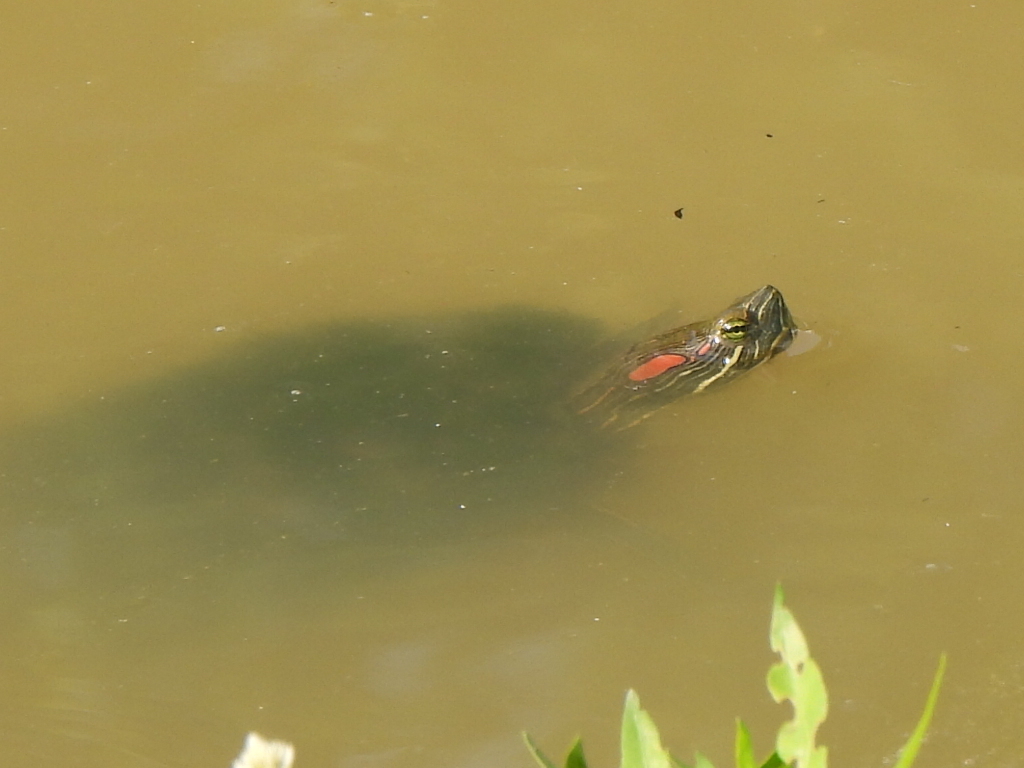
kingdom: Animalia
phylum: Chordata
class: Testudines
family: Emydidae
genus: Trachemys
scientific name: Trachemys scripta
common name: Slider
